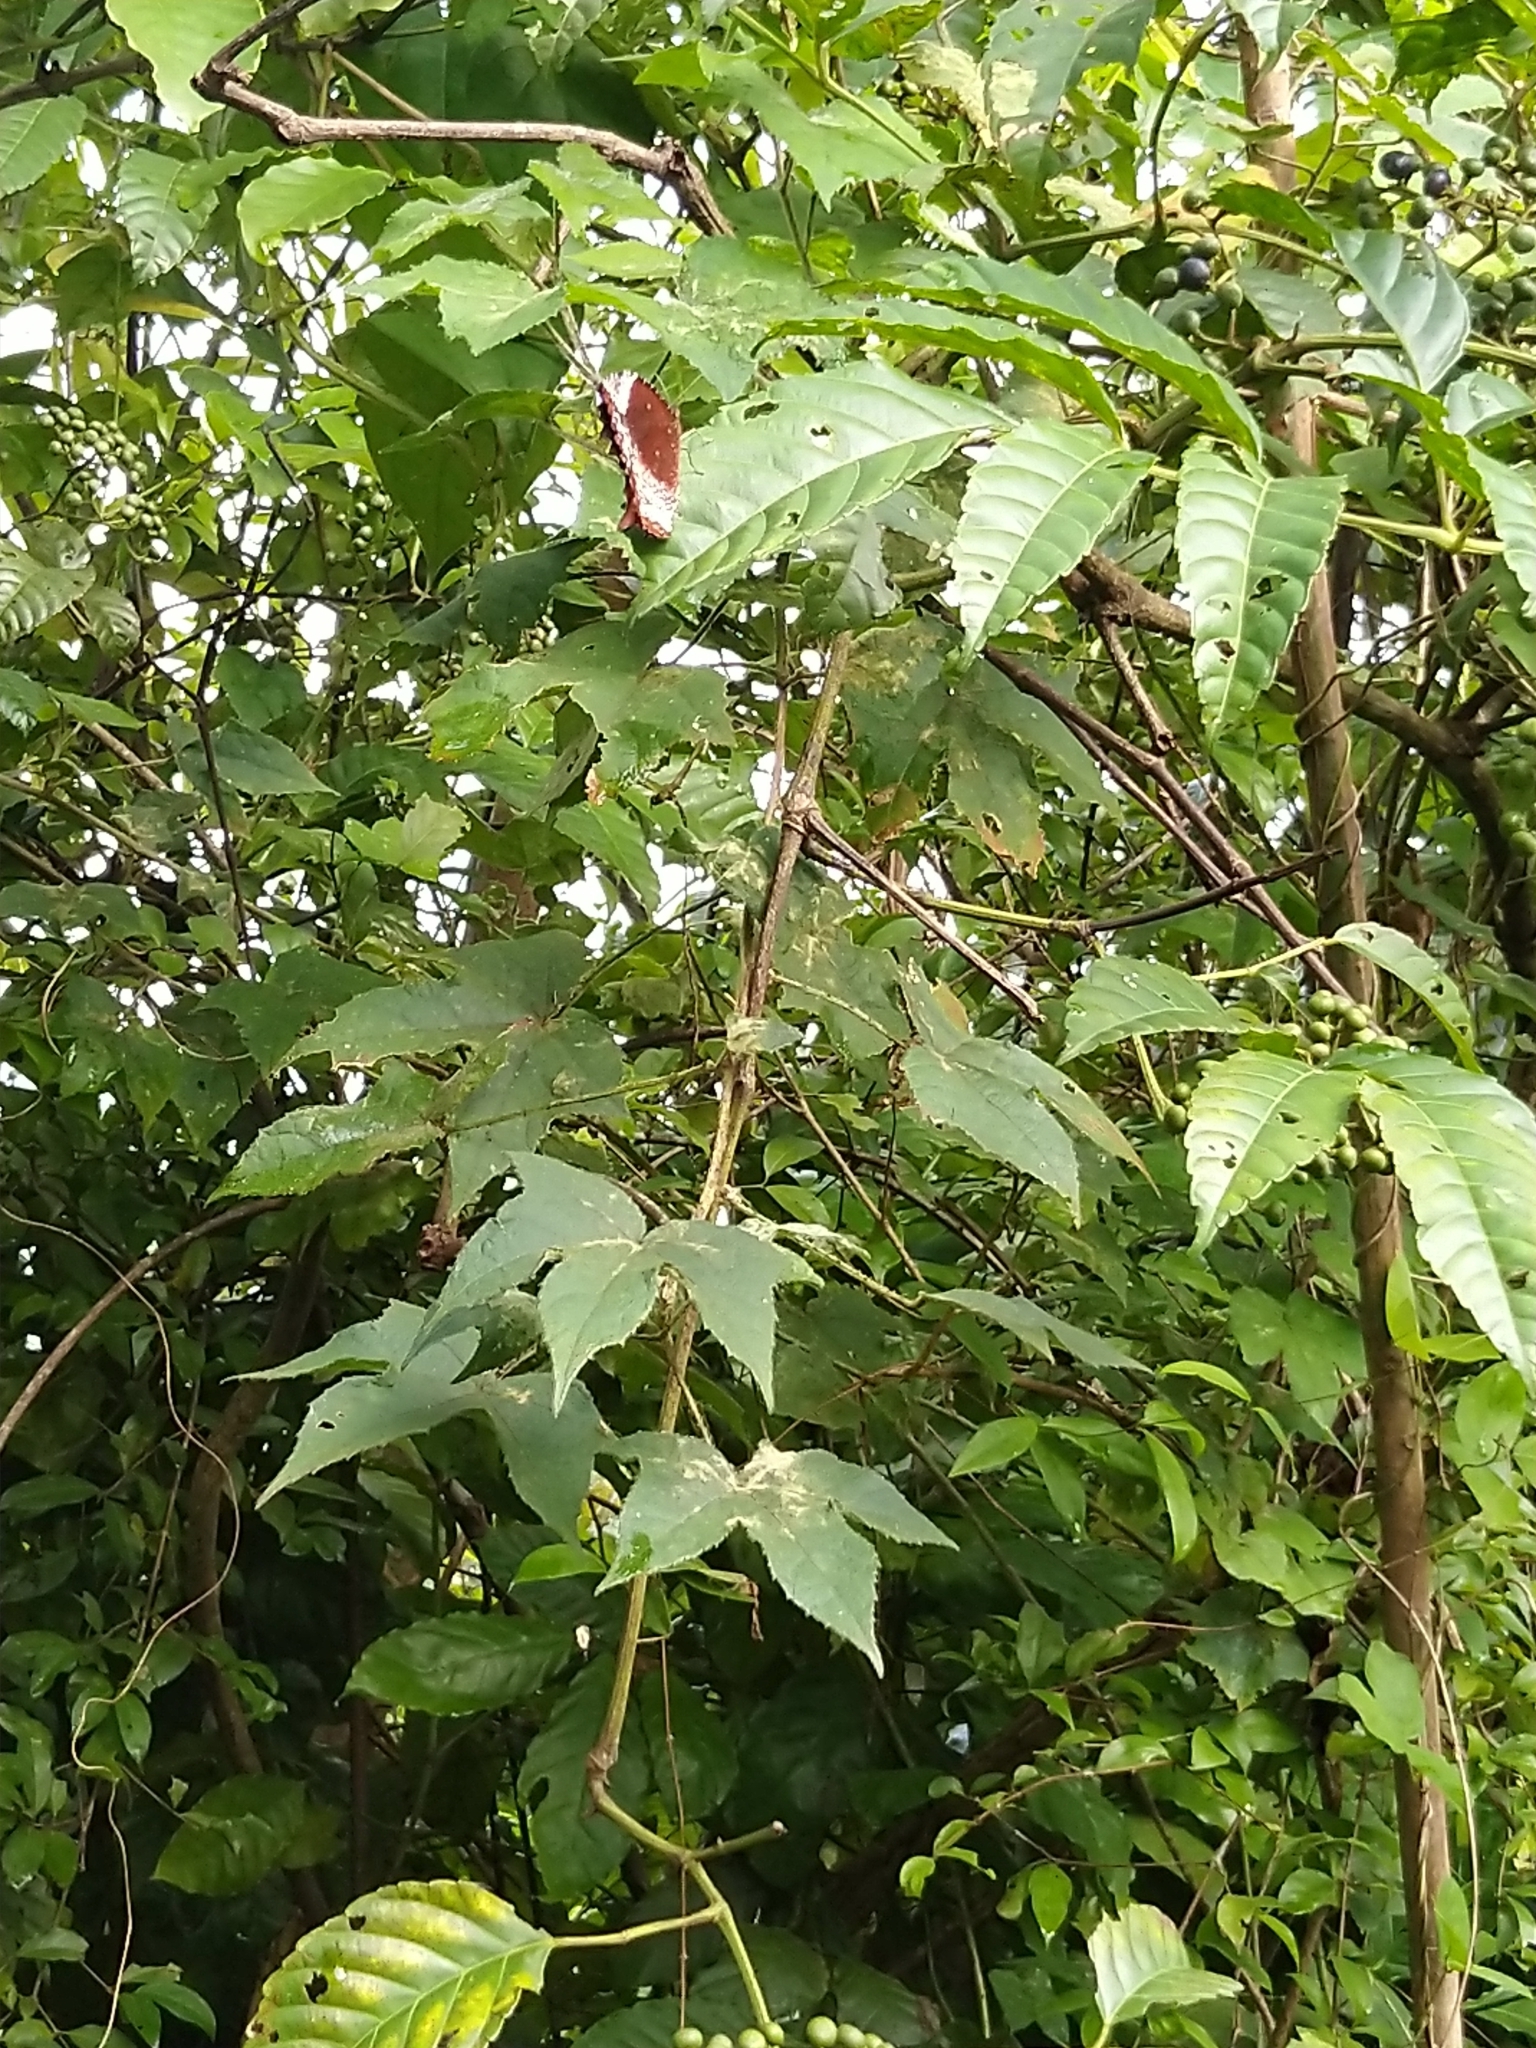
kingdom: Animalia
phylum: Arthropoda
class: Insecta
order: Lepidoptera
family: Nymphalidae
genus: Elymnias
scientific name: Elymnias caudata
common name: Tailed palmfly
